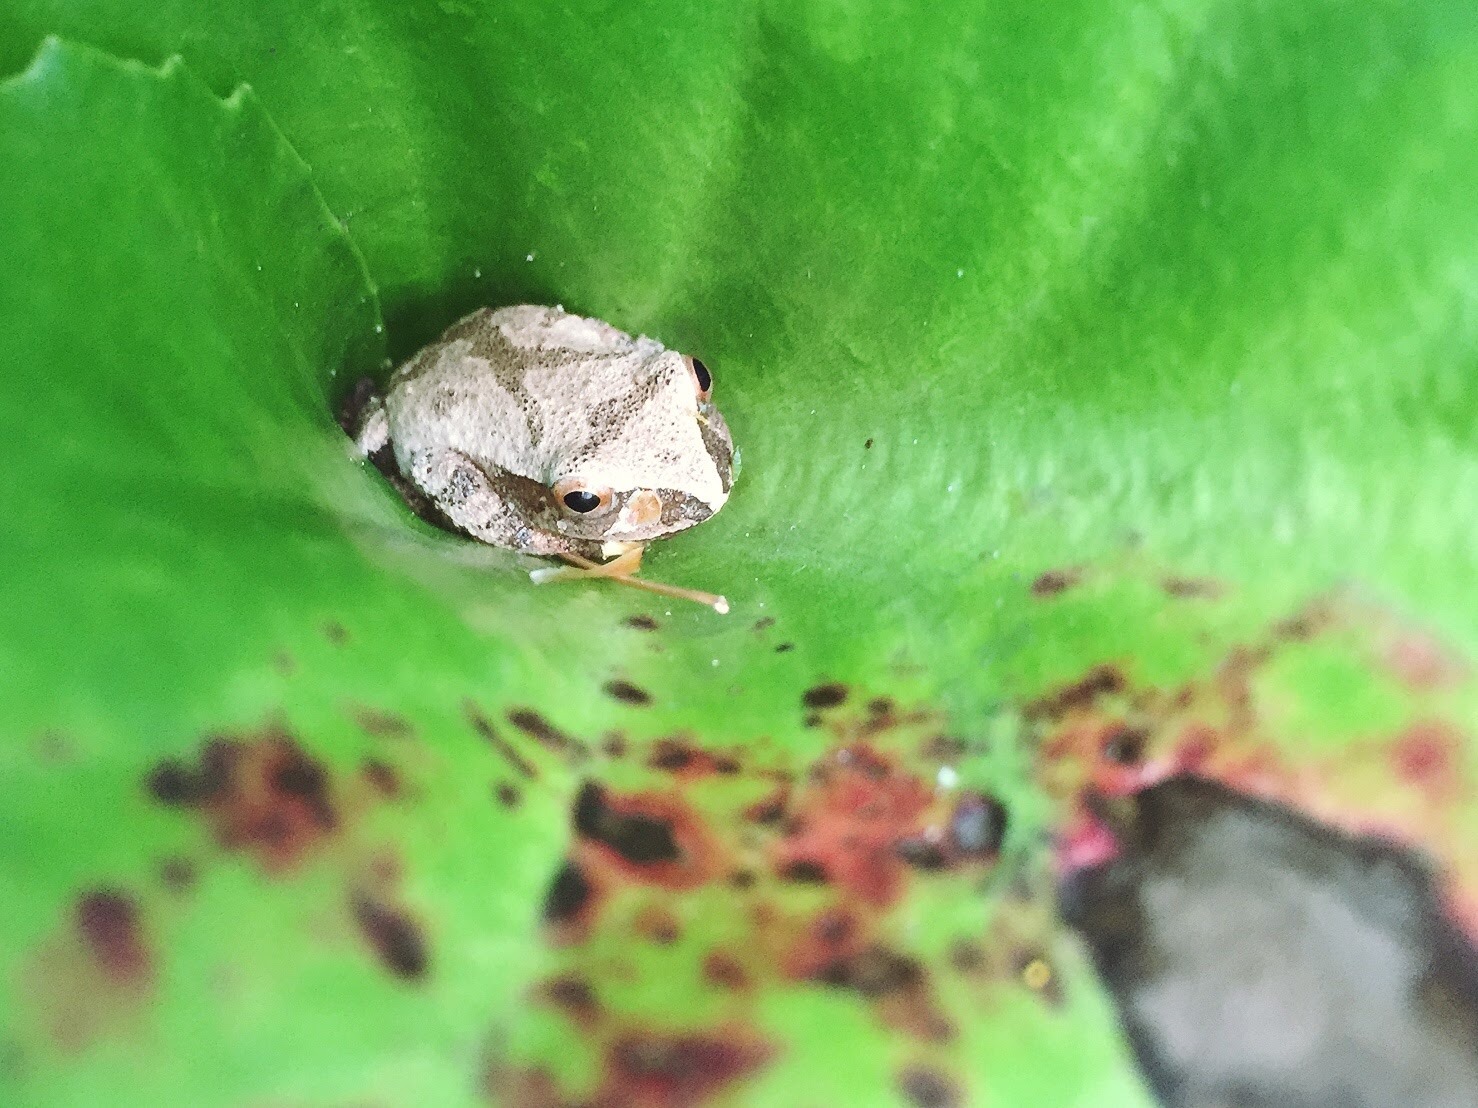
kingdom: Animalia
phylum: Chordata
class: Amphibia
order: Anura
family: Hylidae
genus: Pseudacris
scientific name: Pseudacris crucifer
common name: Spring peeper
